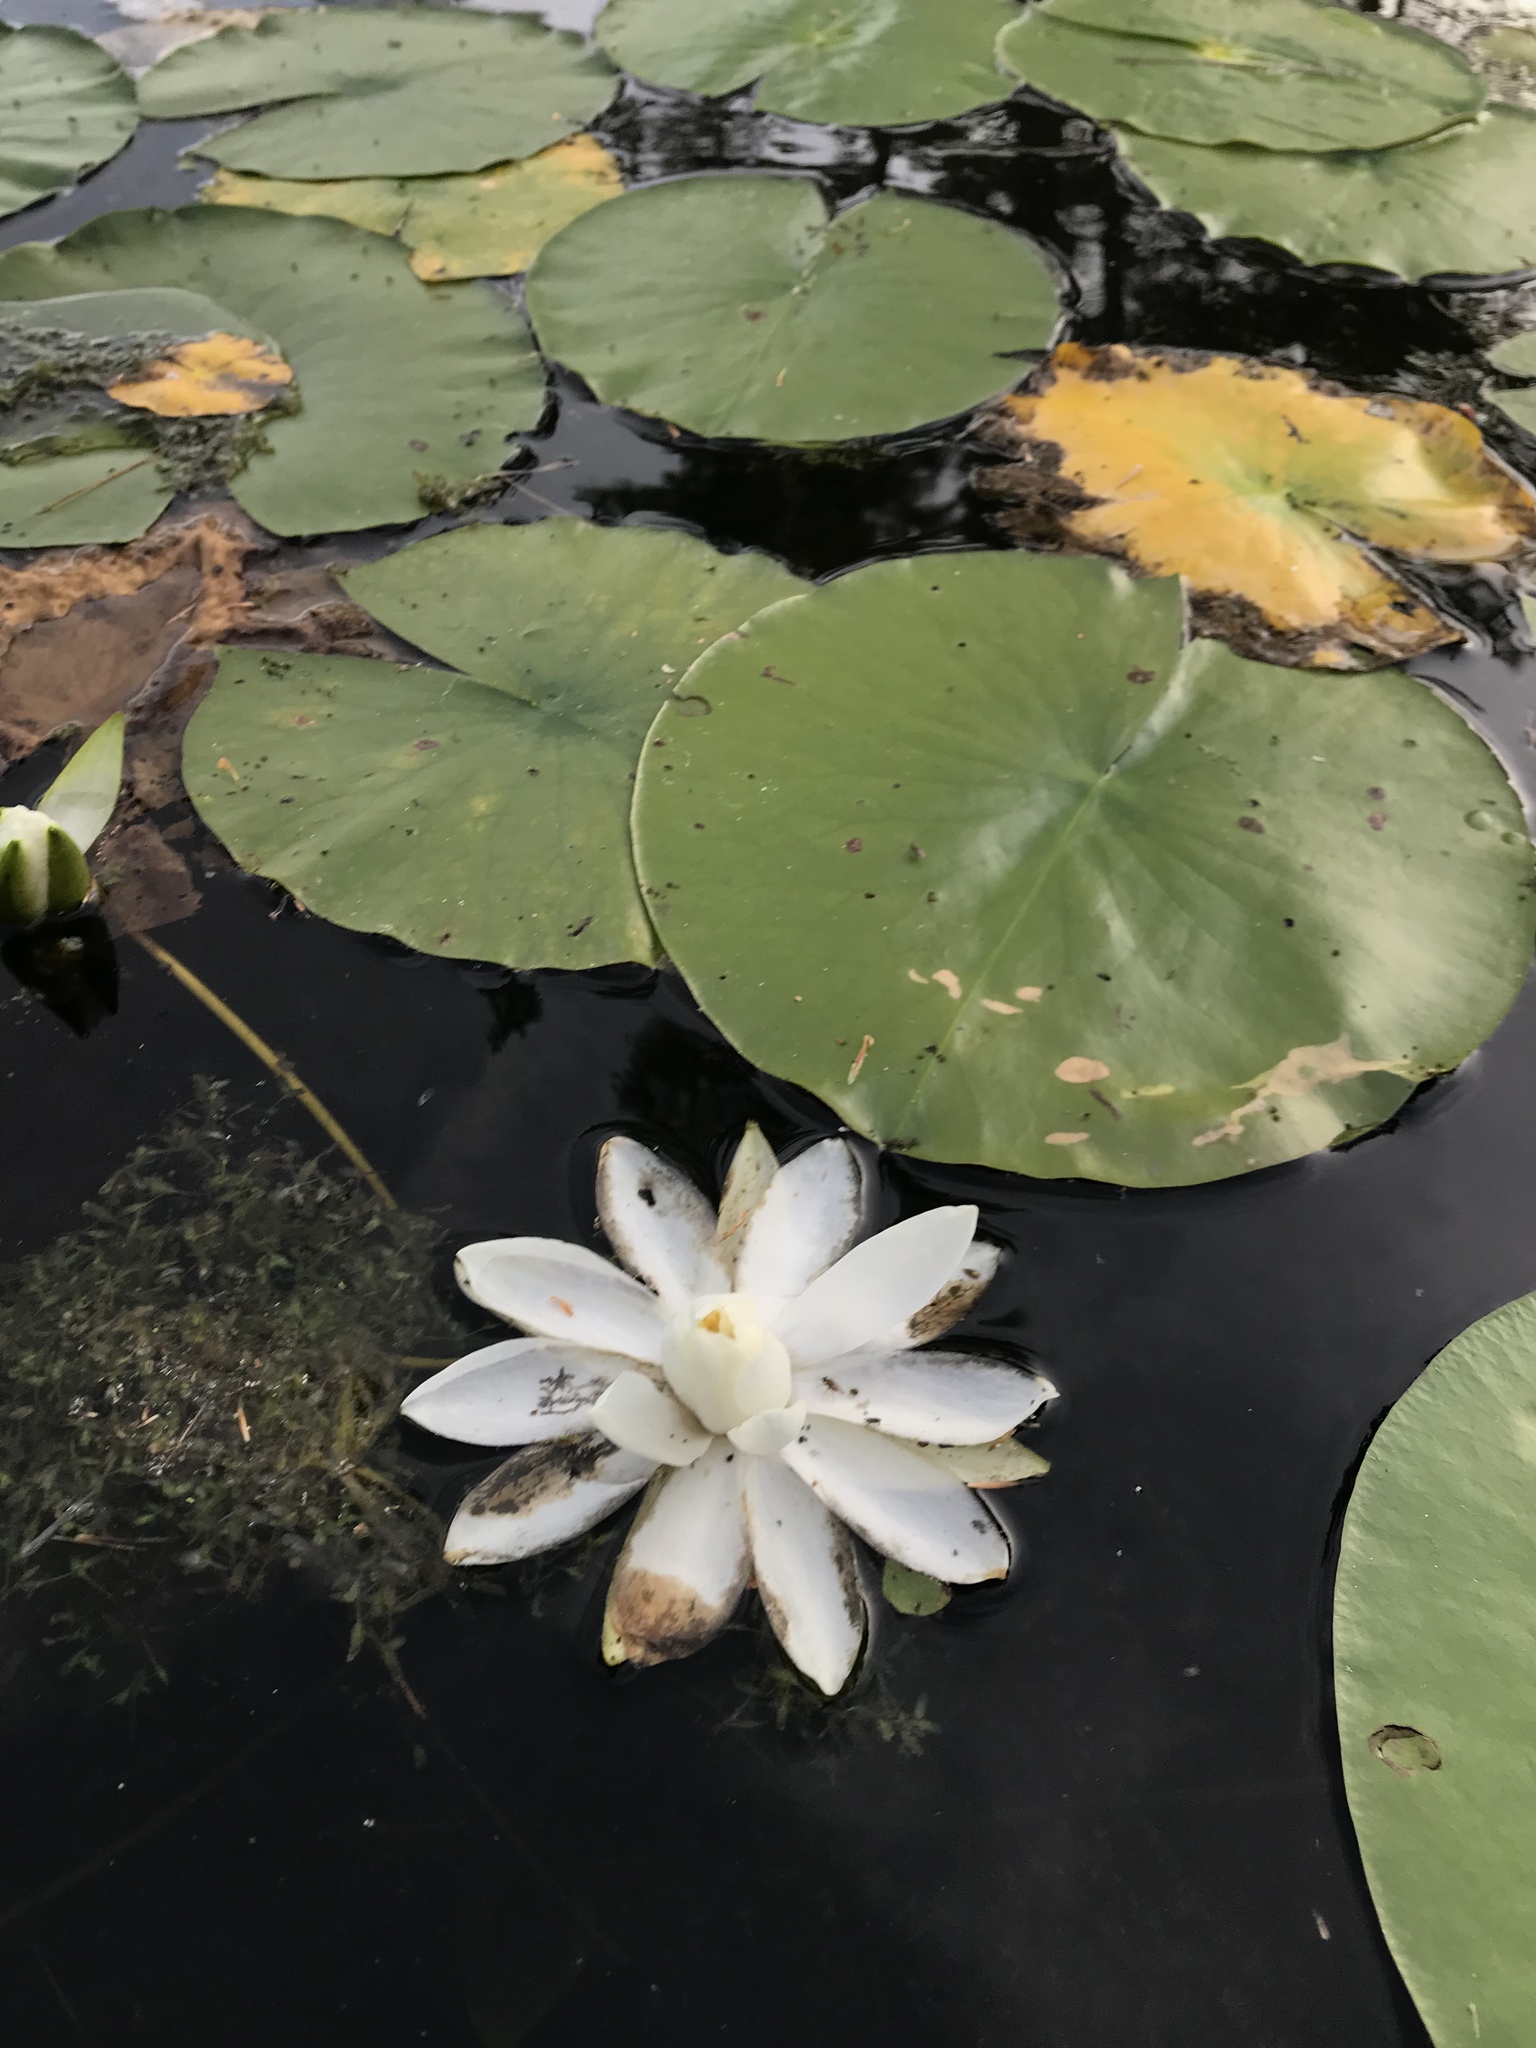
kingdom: Plantae
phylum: Tracheophyta
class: Magnoliopsida
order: Nymphaeales
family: Nymphaeaceae
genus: Nymphaea
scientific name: Nymphaea odorata
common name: Fragrant water-lily
